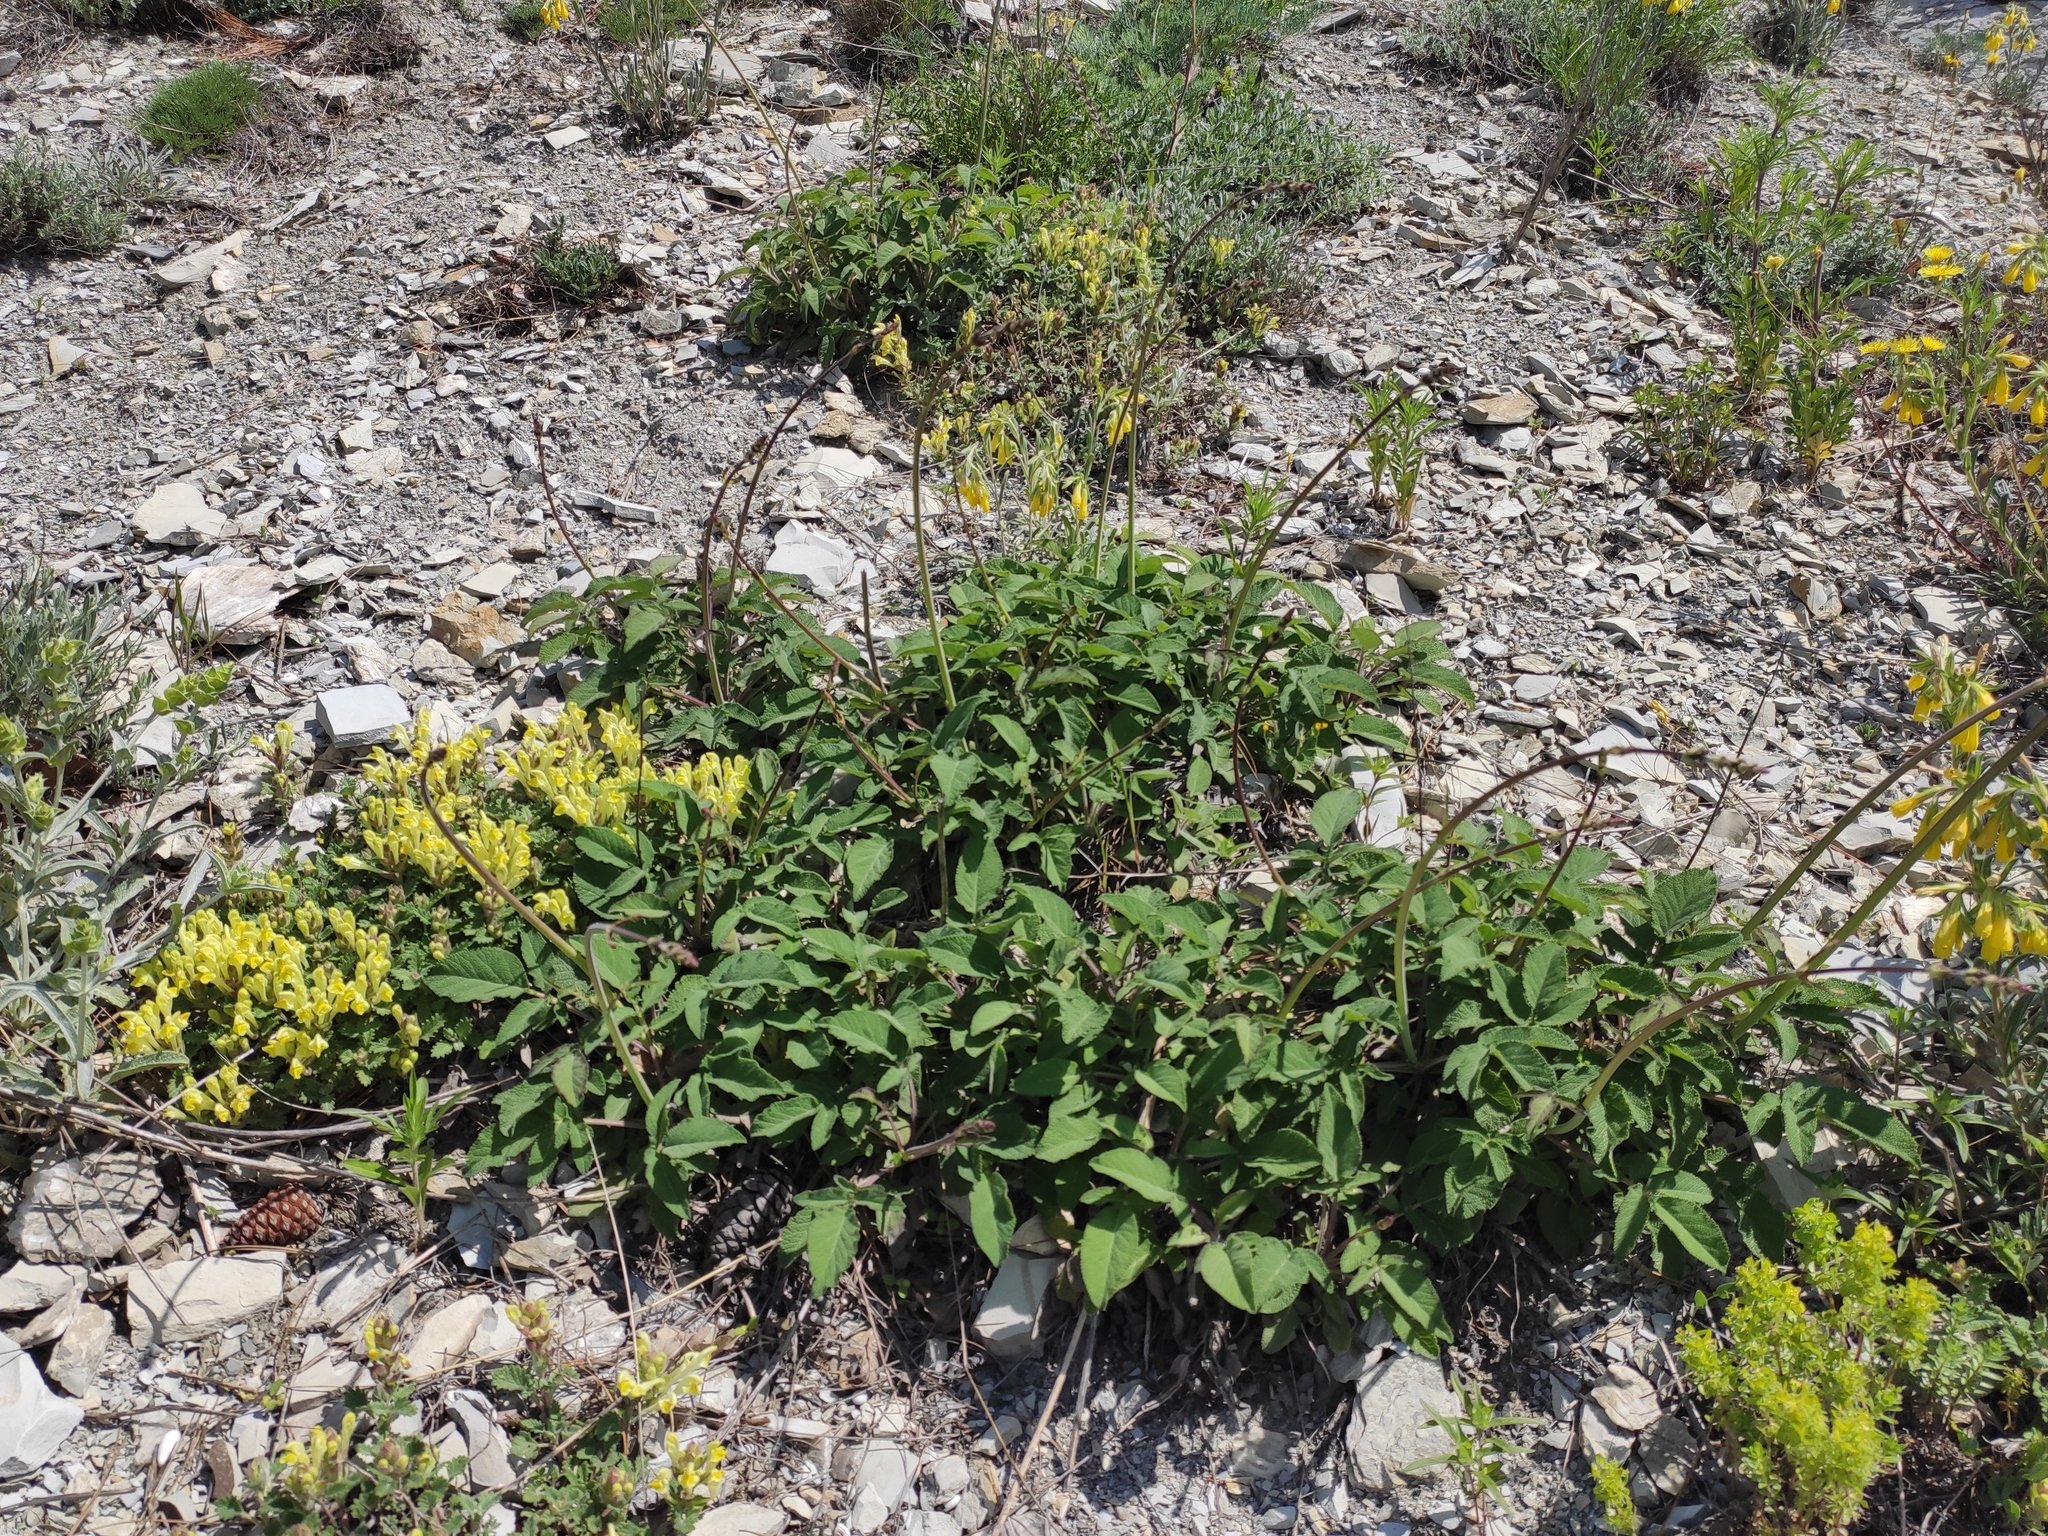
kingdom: Plantae
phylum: Tracheophyta
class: Magnoliopsida
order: Lamiales
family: Lamiaceae
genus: Salvia
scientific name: Salvia ringens
